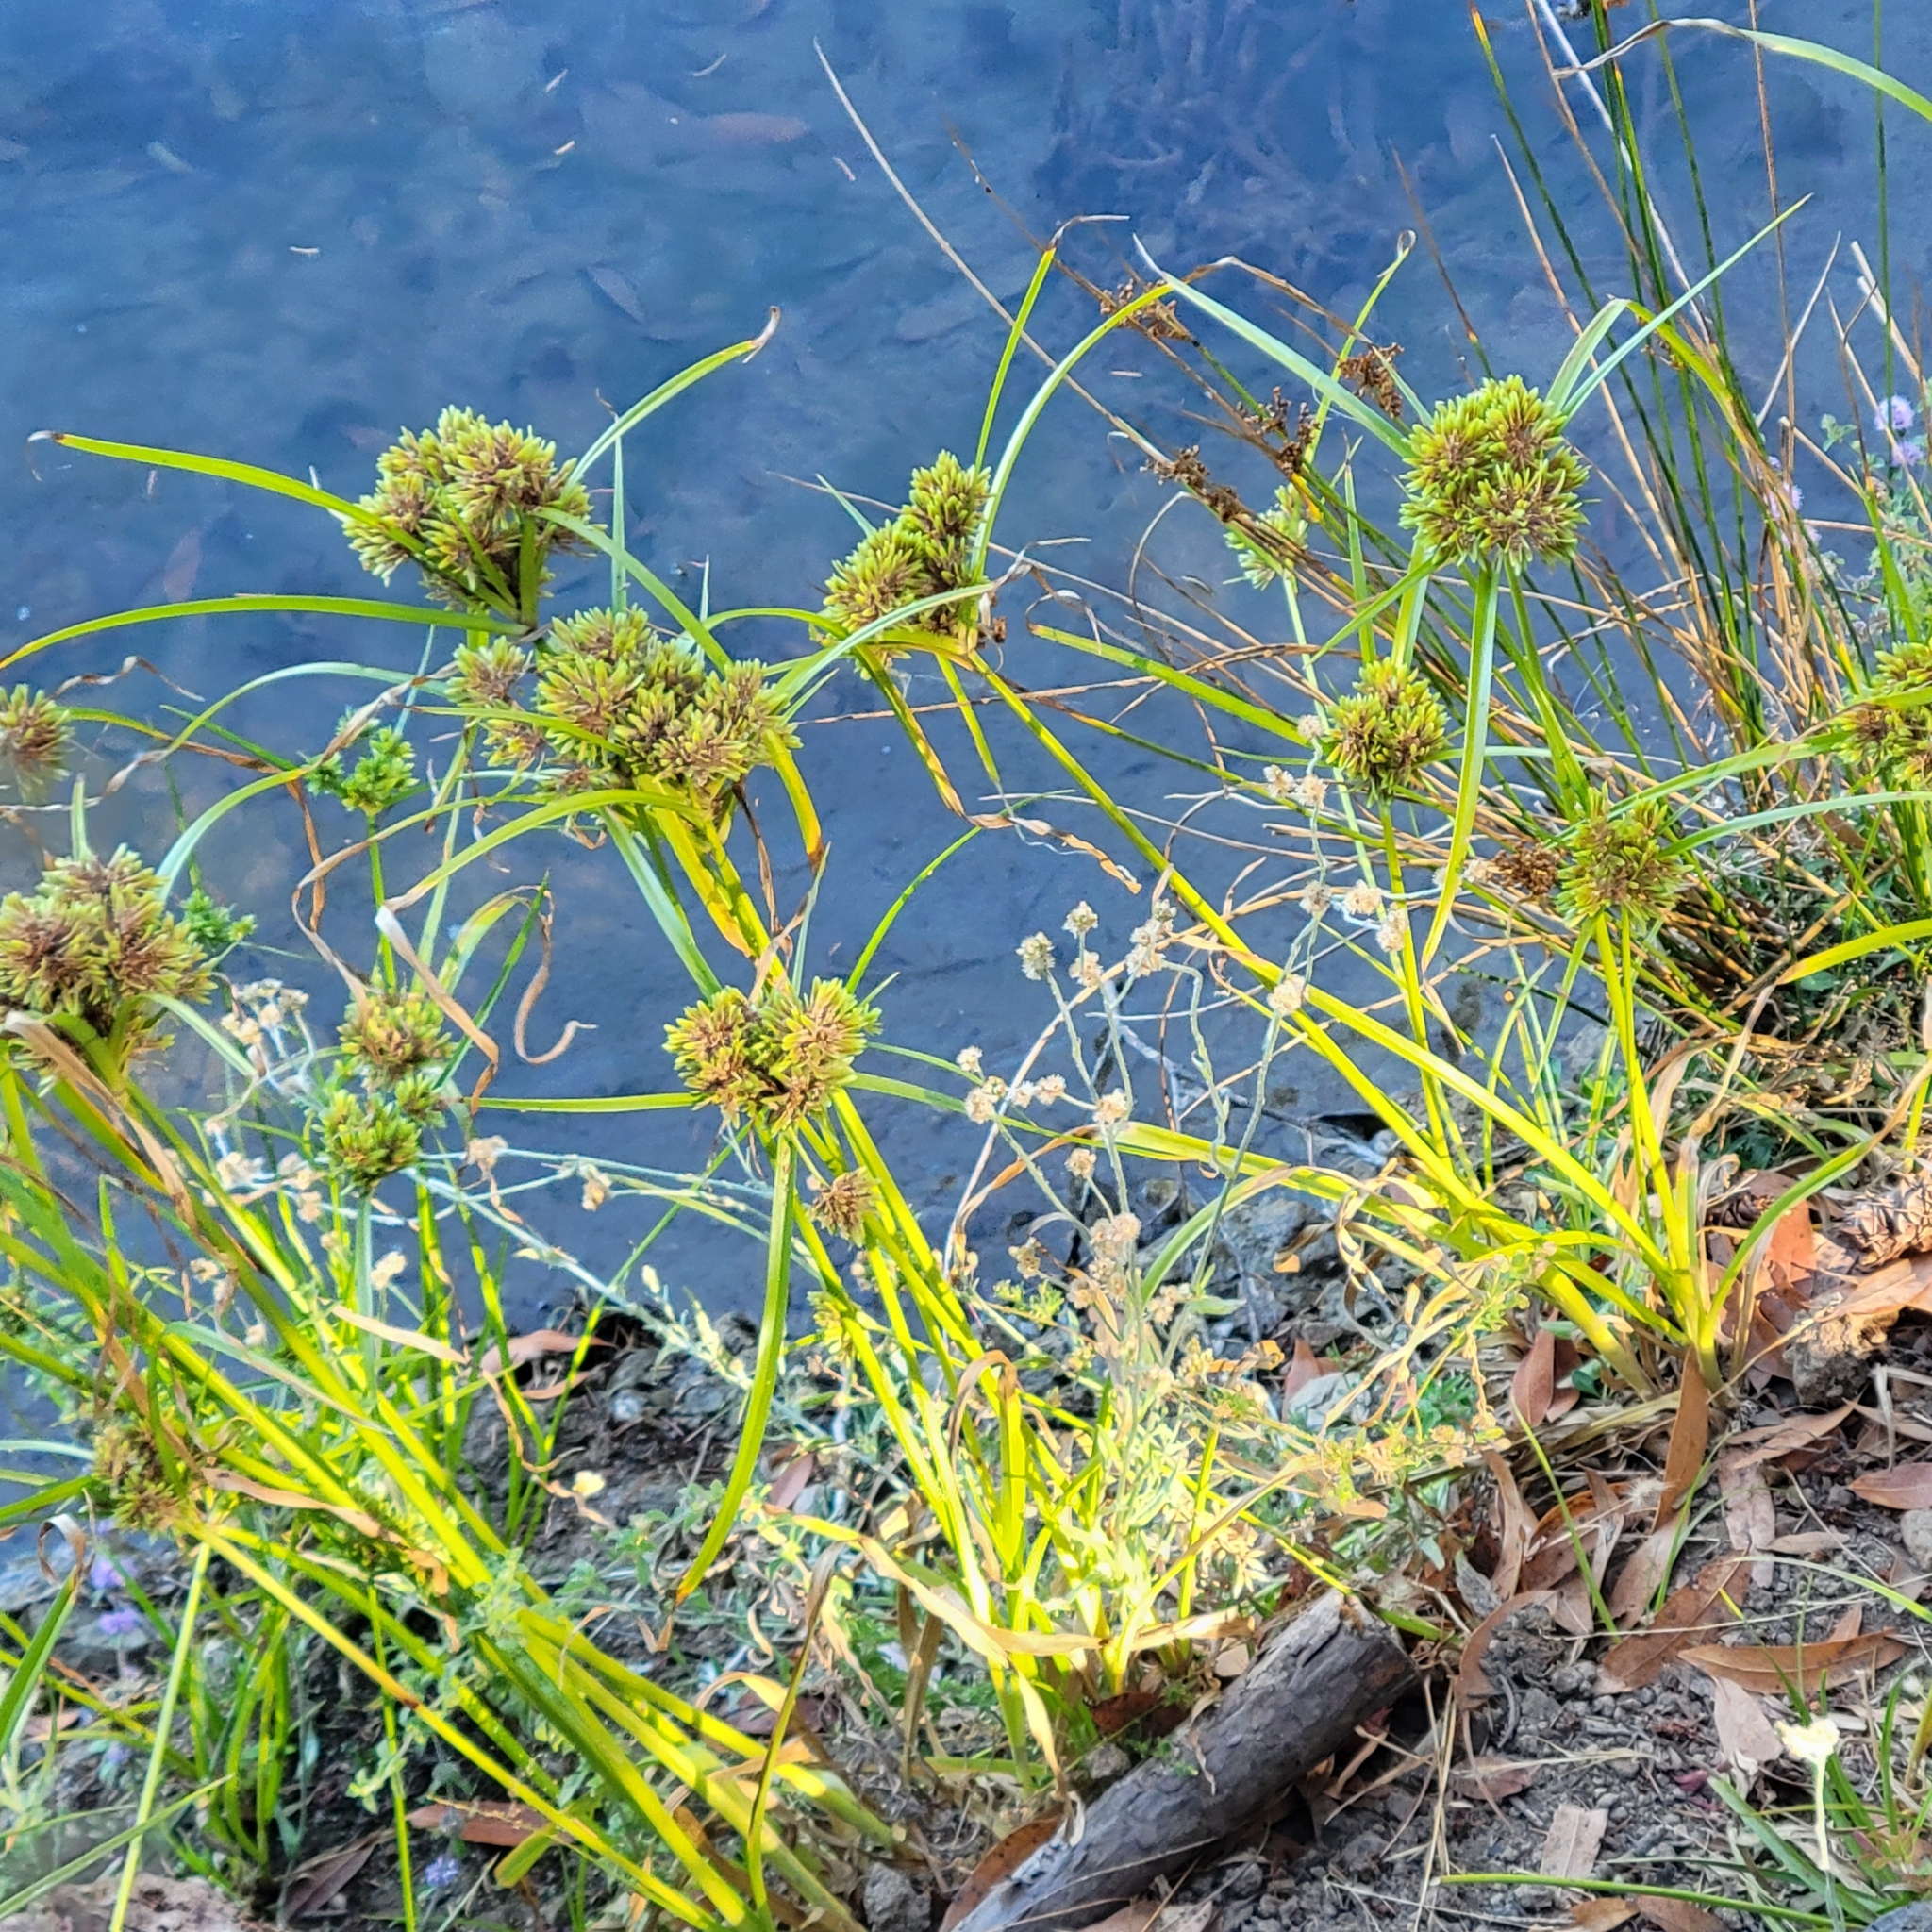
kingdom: Plantae
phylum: Tracheophyta
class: Liliopsida
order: Poales
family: Cyperaceae
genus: Cyperus
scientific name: Cyperus eragrostis
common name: Tall flatsedge
